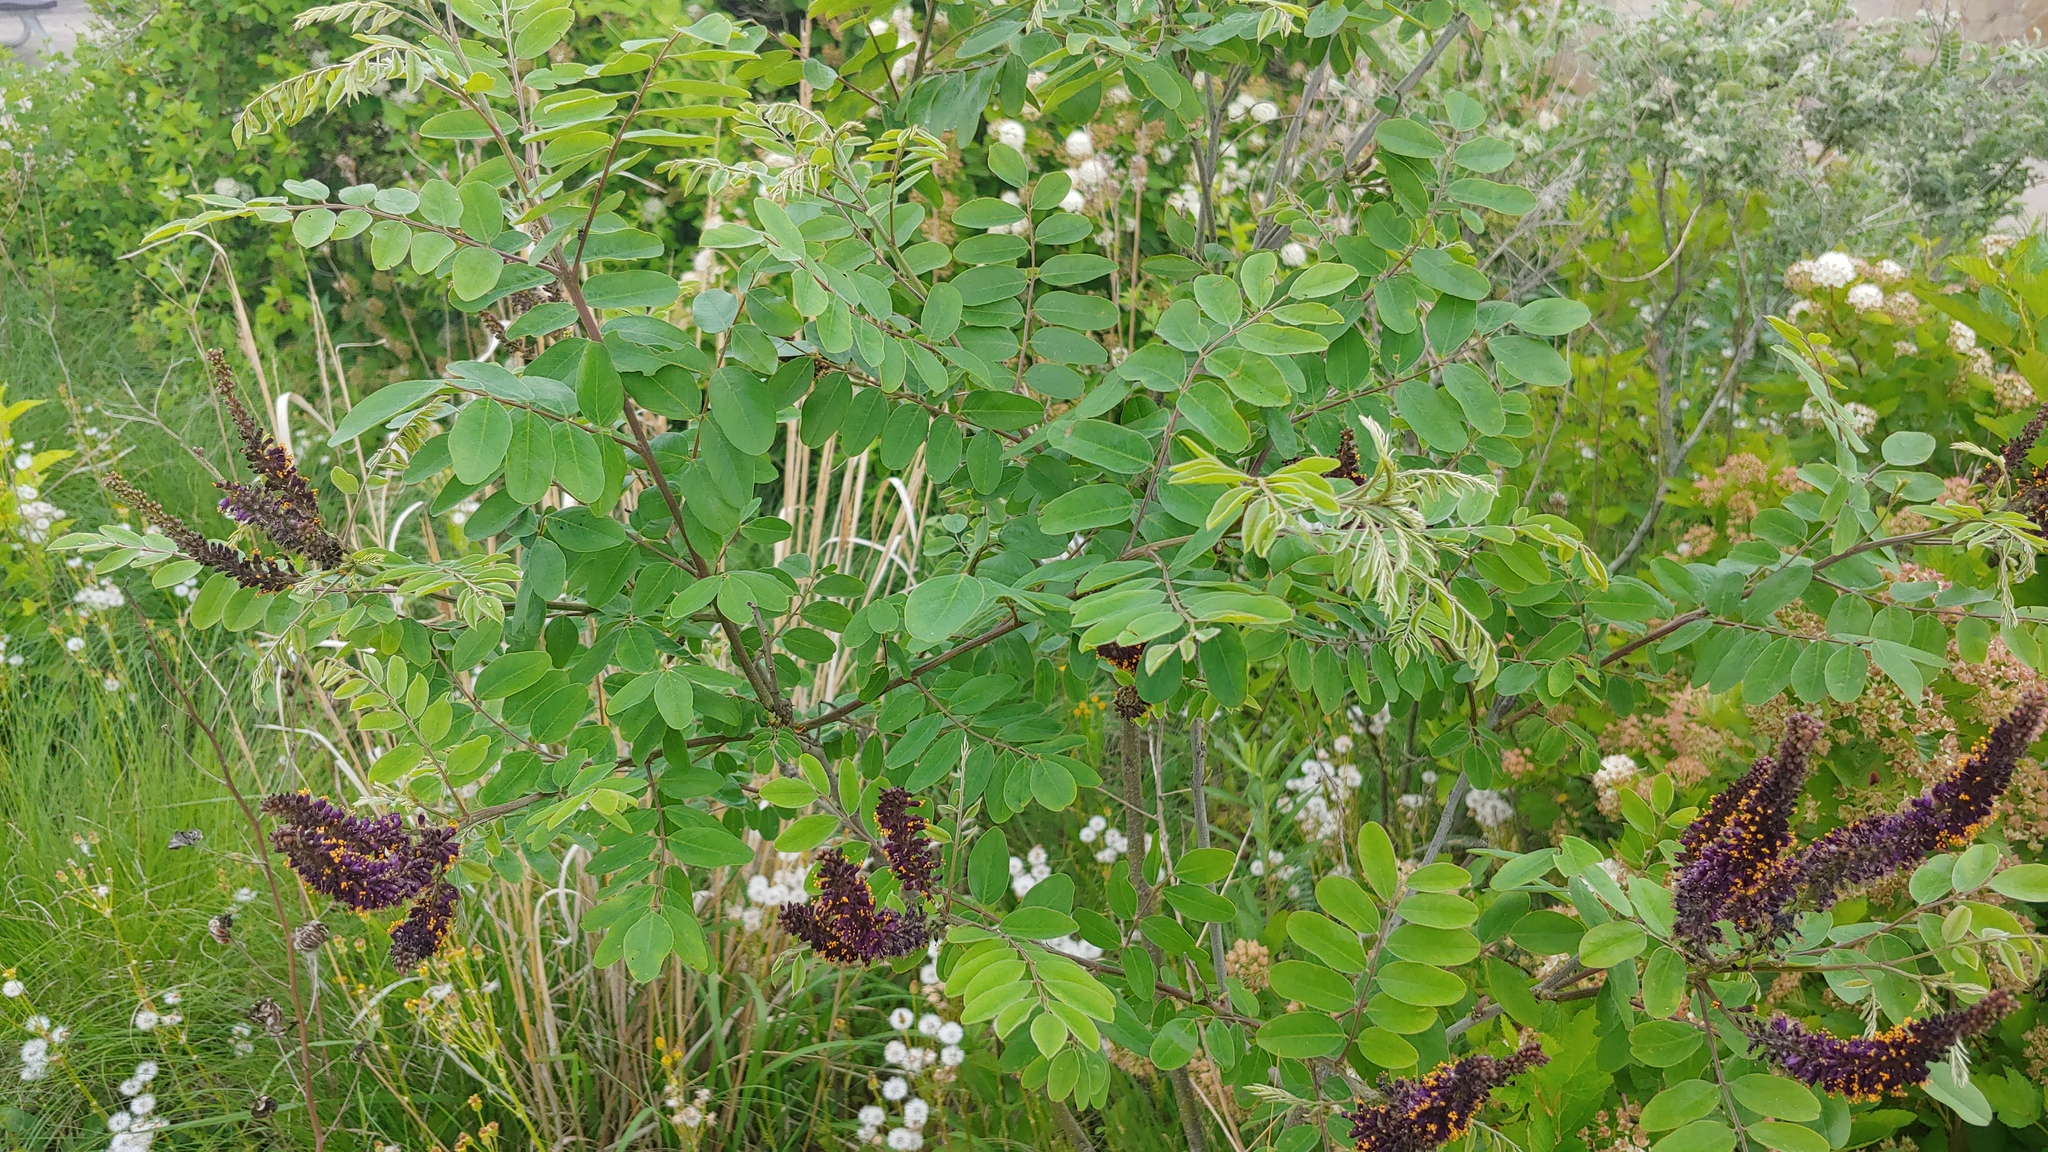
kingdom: Plantae
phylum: Tracheophyta
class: Magnoliopsida
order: Fabales
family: Fabaceae
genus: Amorpha
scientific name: Amorpha fruticosa
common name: False indigo
